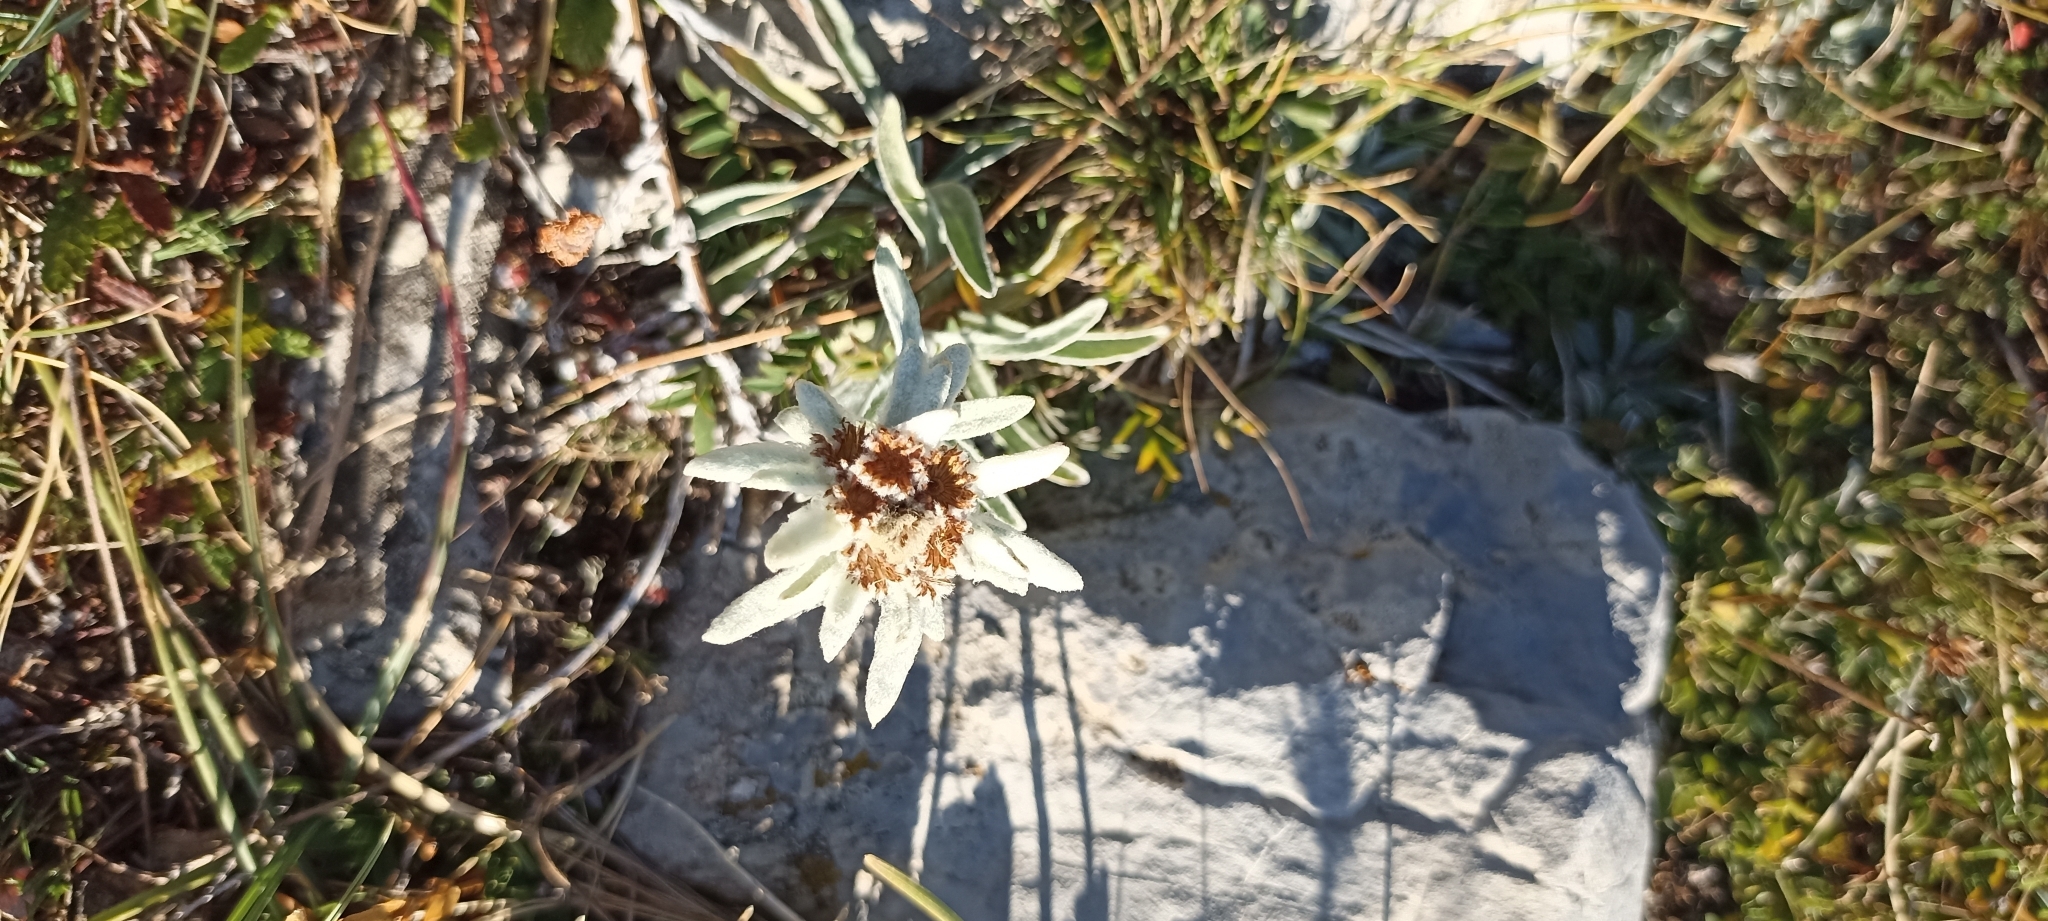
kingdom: Plantae
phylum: Tracheophyta
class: Magnoliopsida
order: Asterales
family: Asteraceae
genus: Leontopodium
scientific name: Leontopodium nivale
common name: Edelweiss
